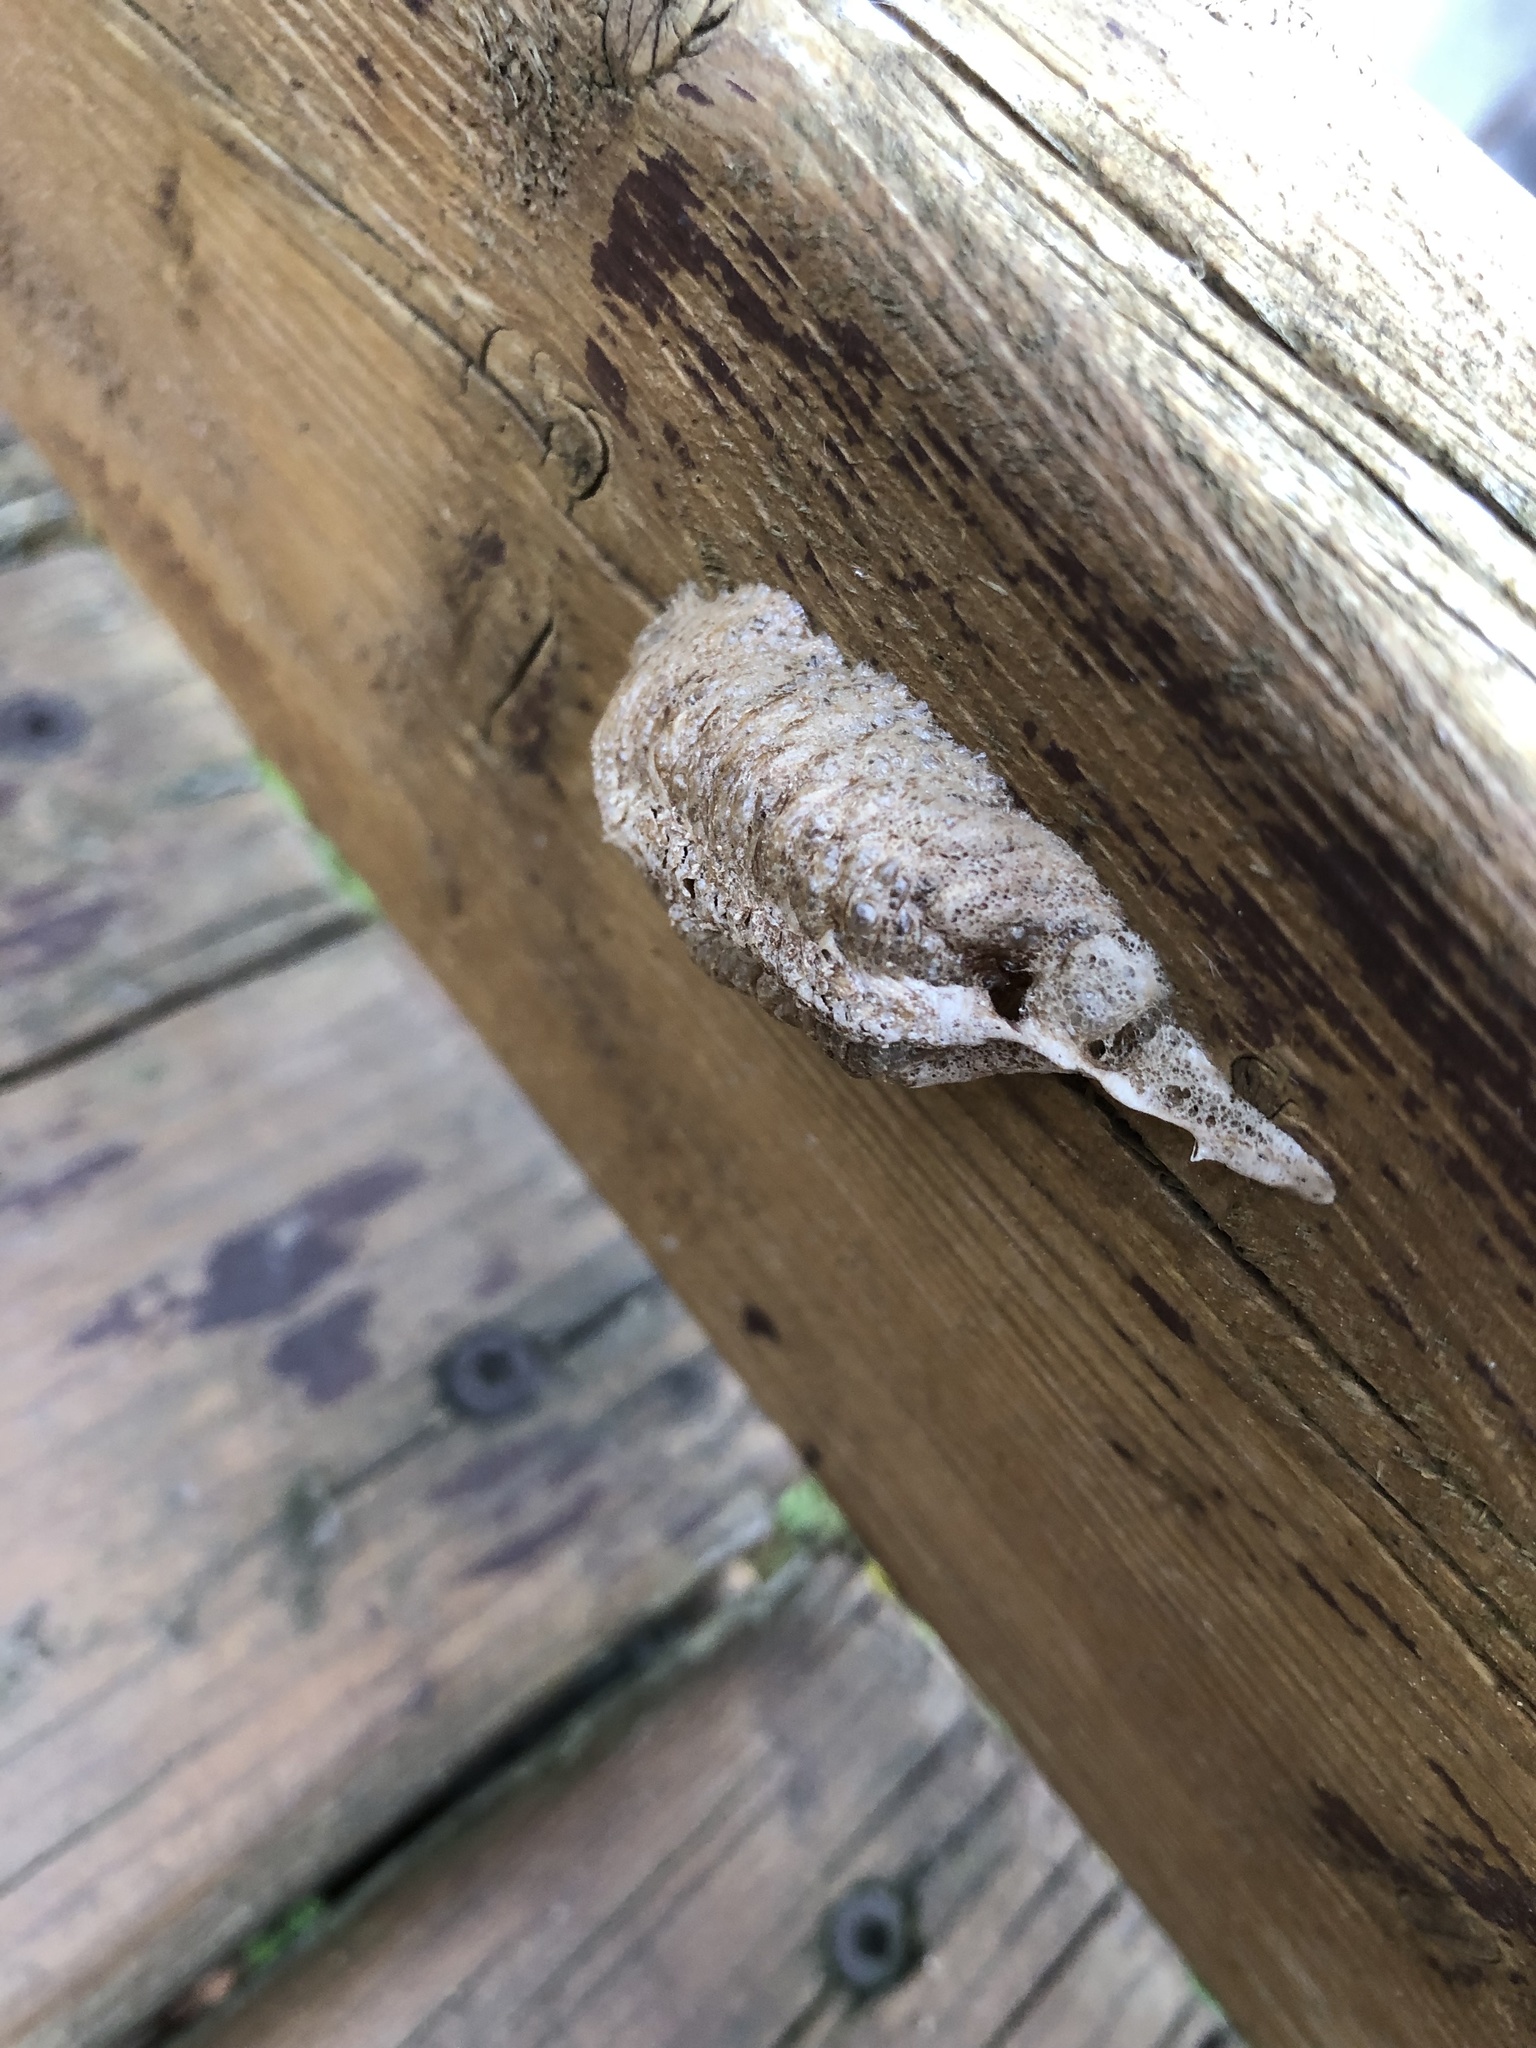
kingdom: Animalia
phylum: Arthropoda
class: Insecta
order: Mantodea
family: Mantidae
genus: Mantis
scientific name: Mantis religiosa
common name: Praying mantis
